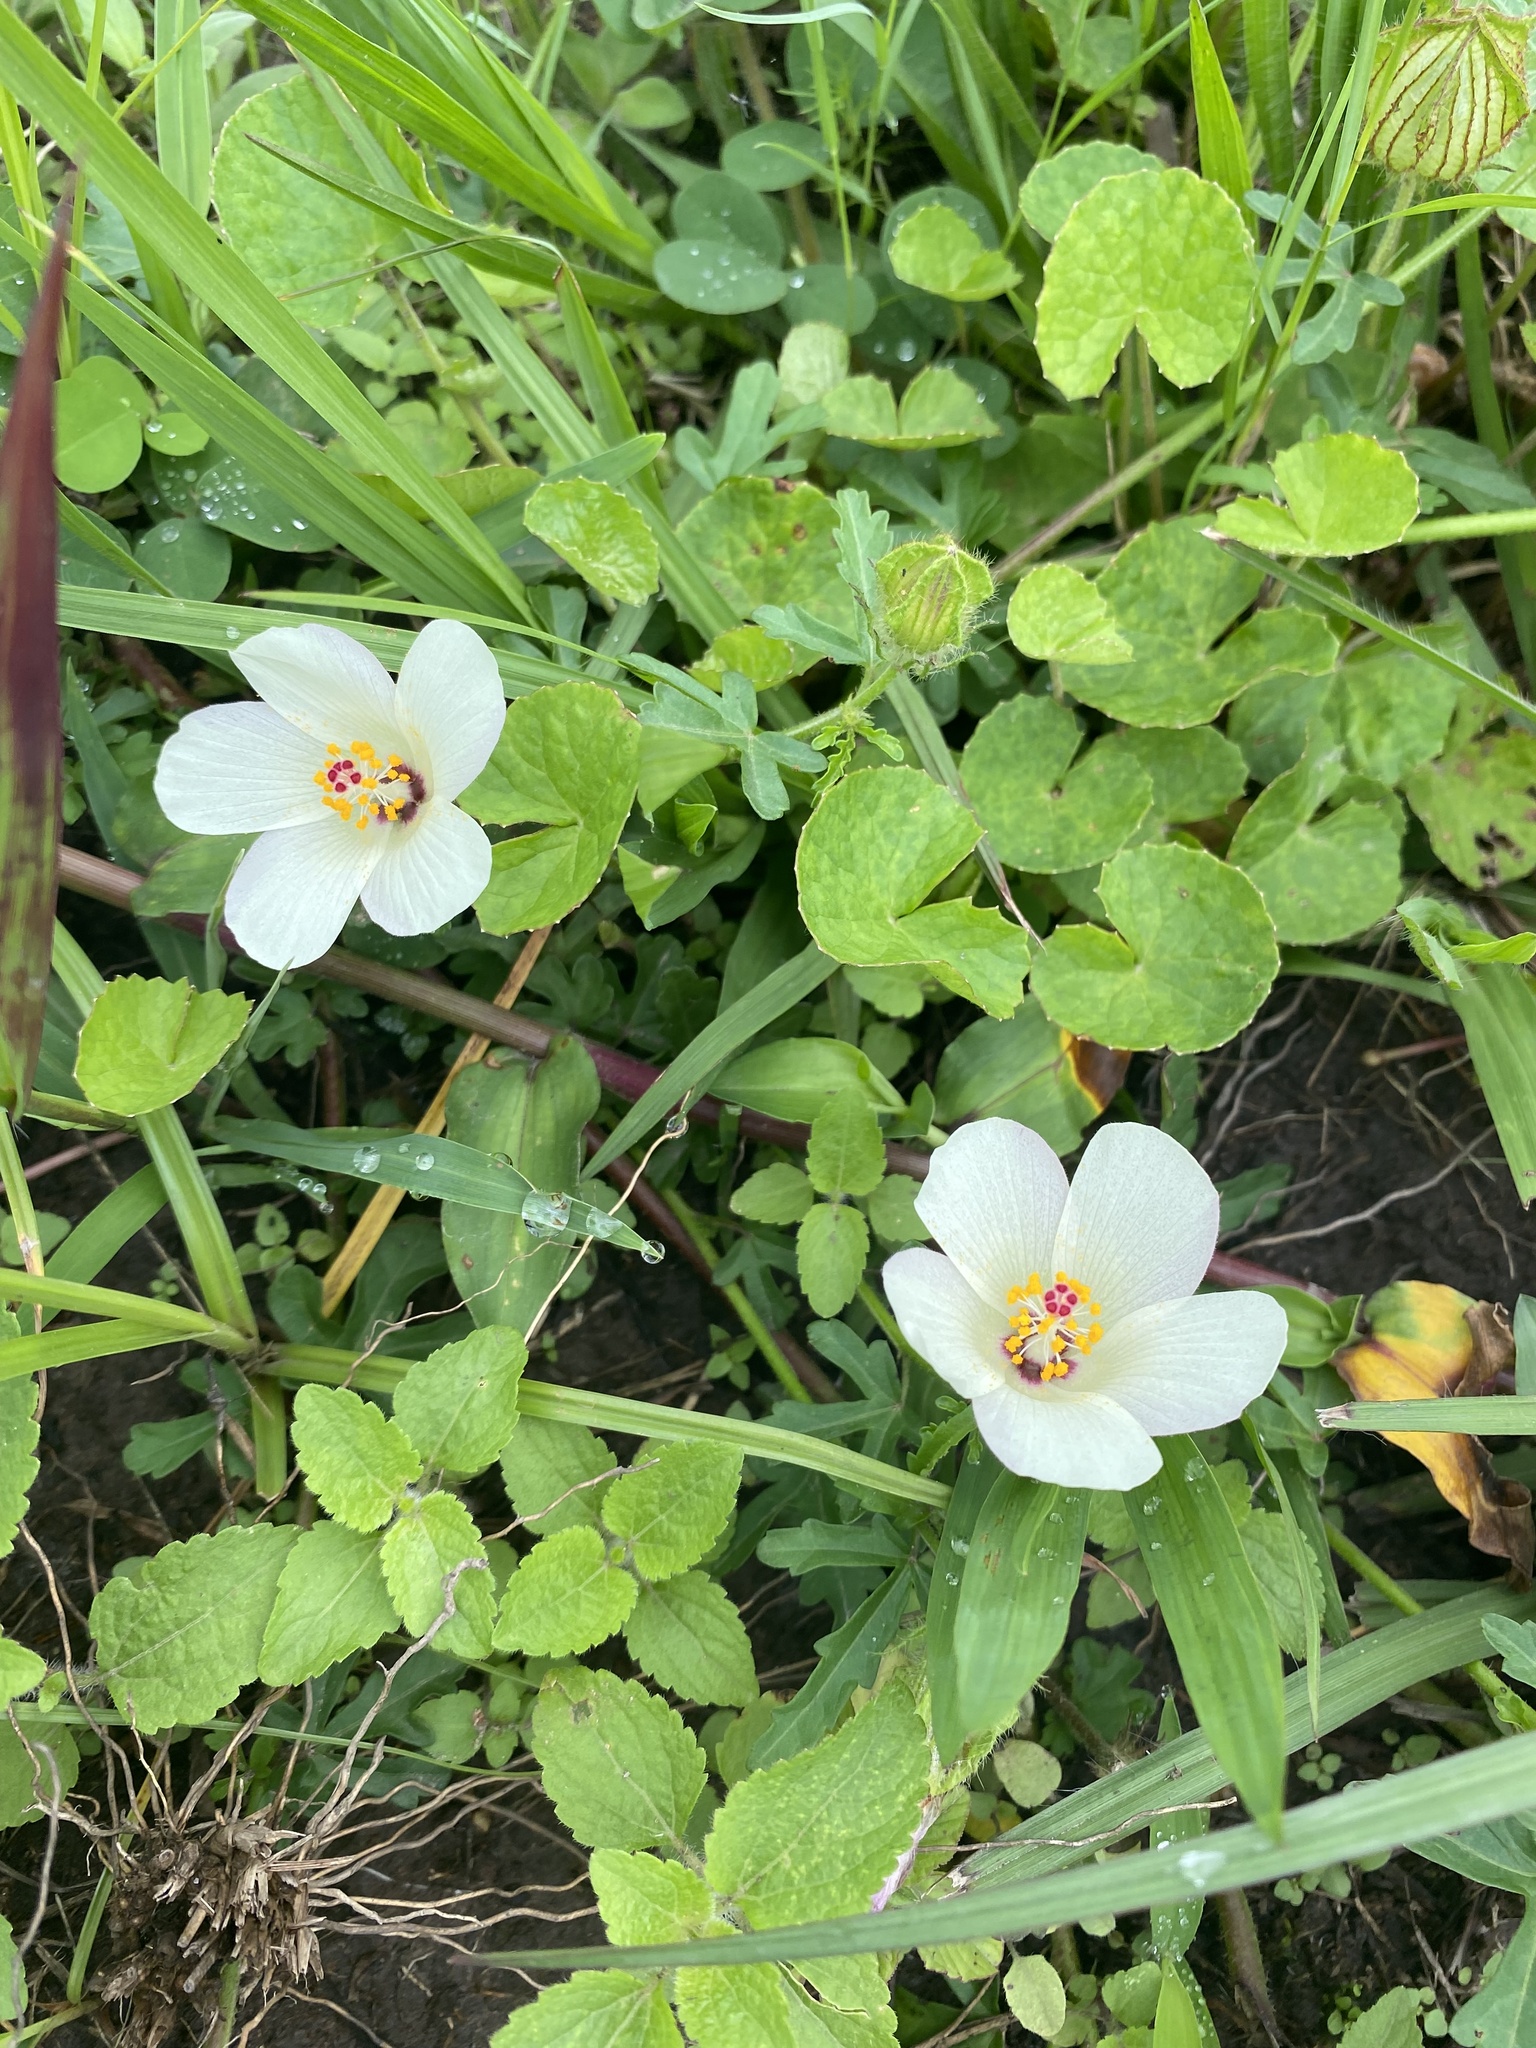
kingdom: Plantae
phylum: Tracheophyta
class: Magnoliopsida
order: Malvales
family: Malvaceae
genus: Hibiscus
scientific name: Hibiscus trionum
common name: Bladder ketmia
